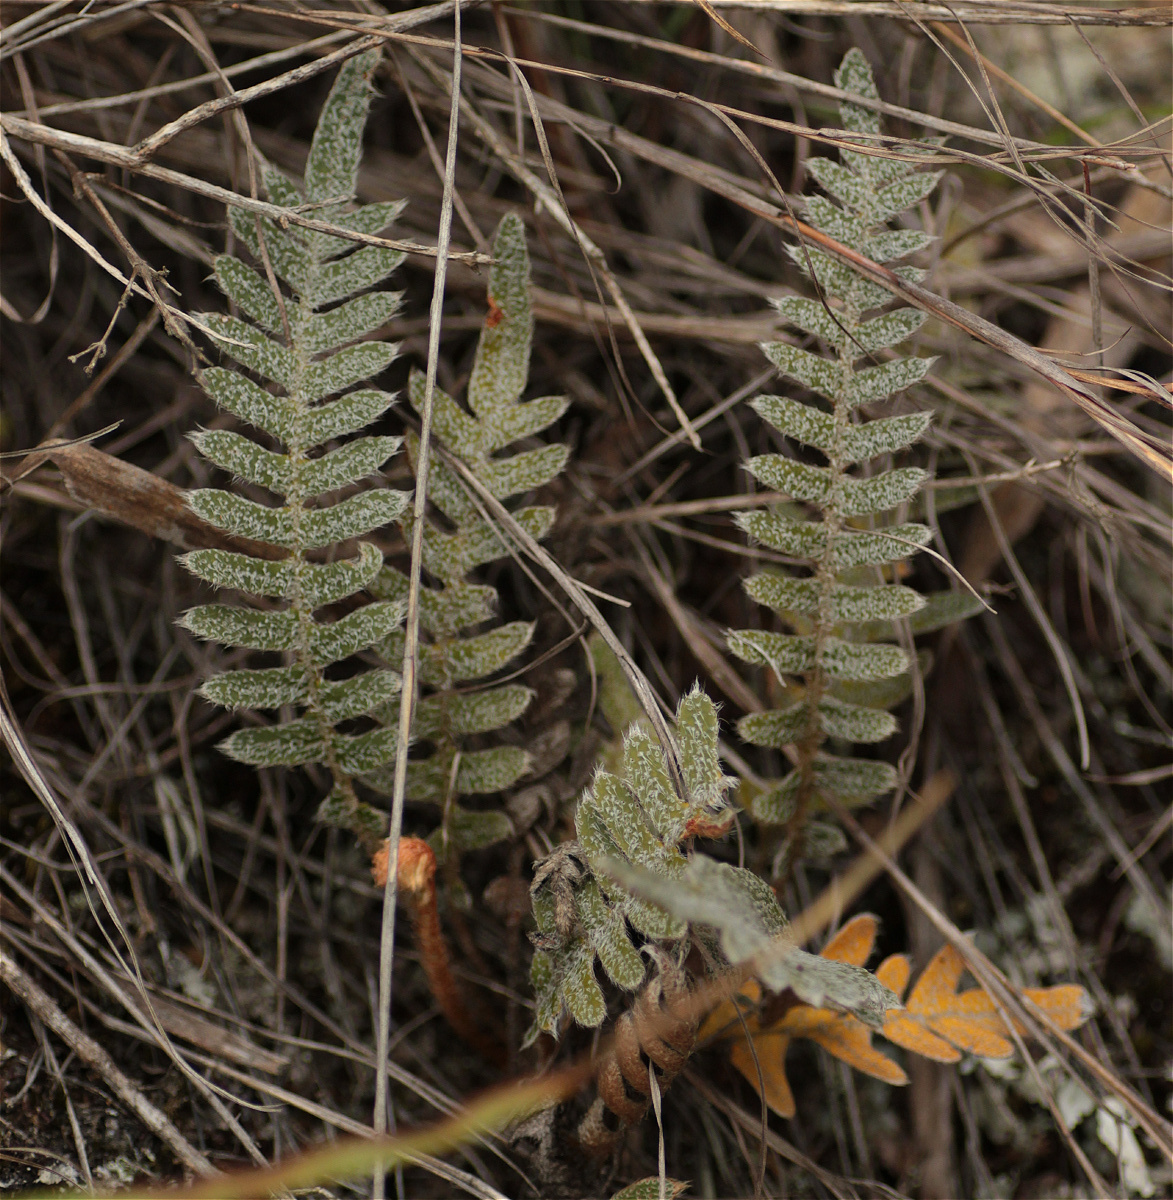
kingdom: Plantae
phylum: Tracheophyta
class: Polypodiopsida
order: Polypodiales
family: Polypodiaceae
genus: Pleopeltis
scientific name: Pleopeltis bombycina
